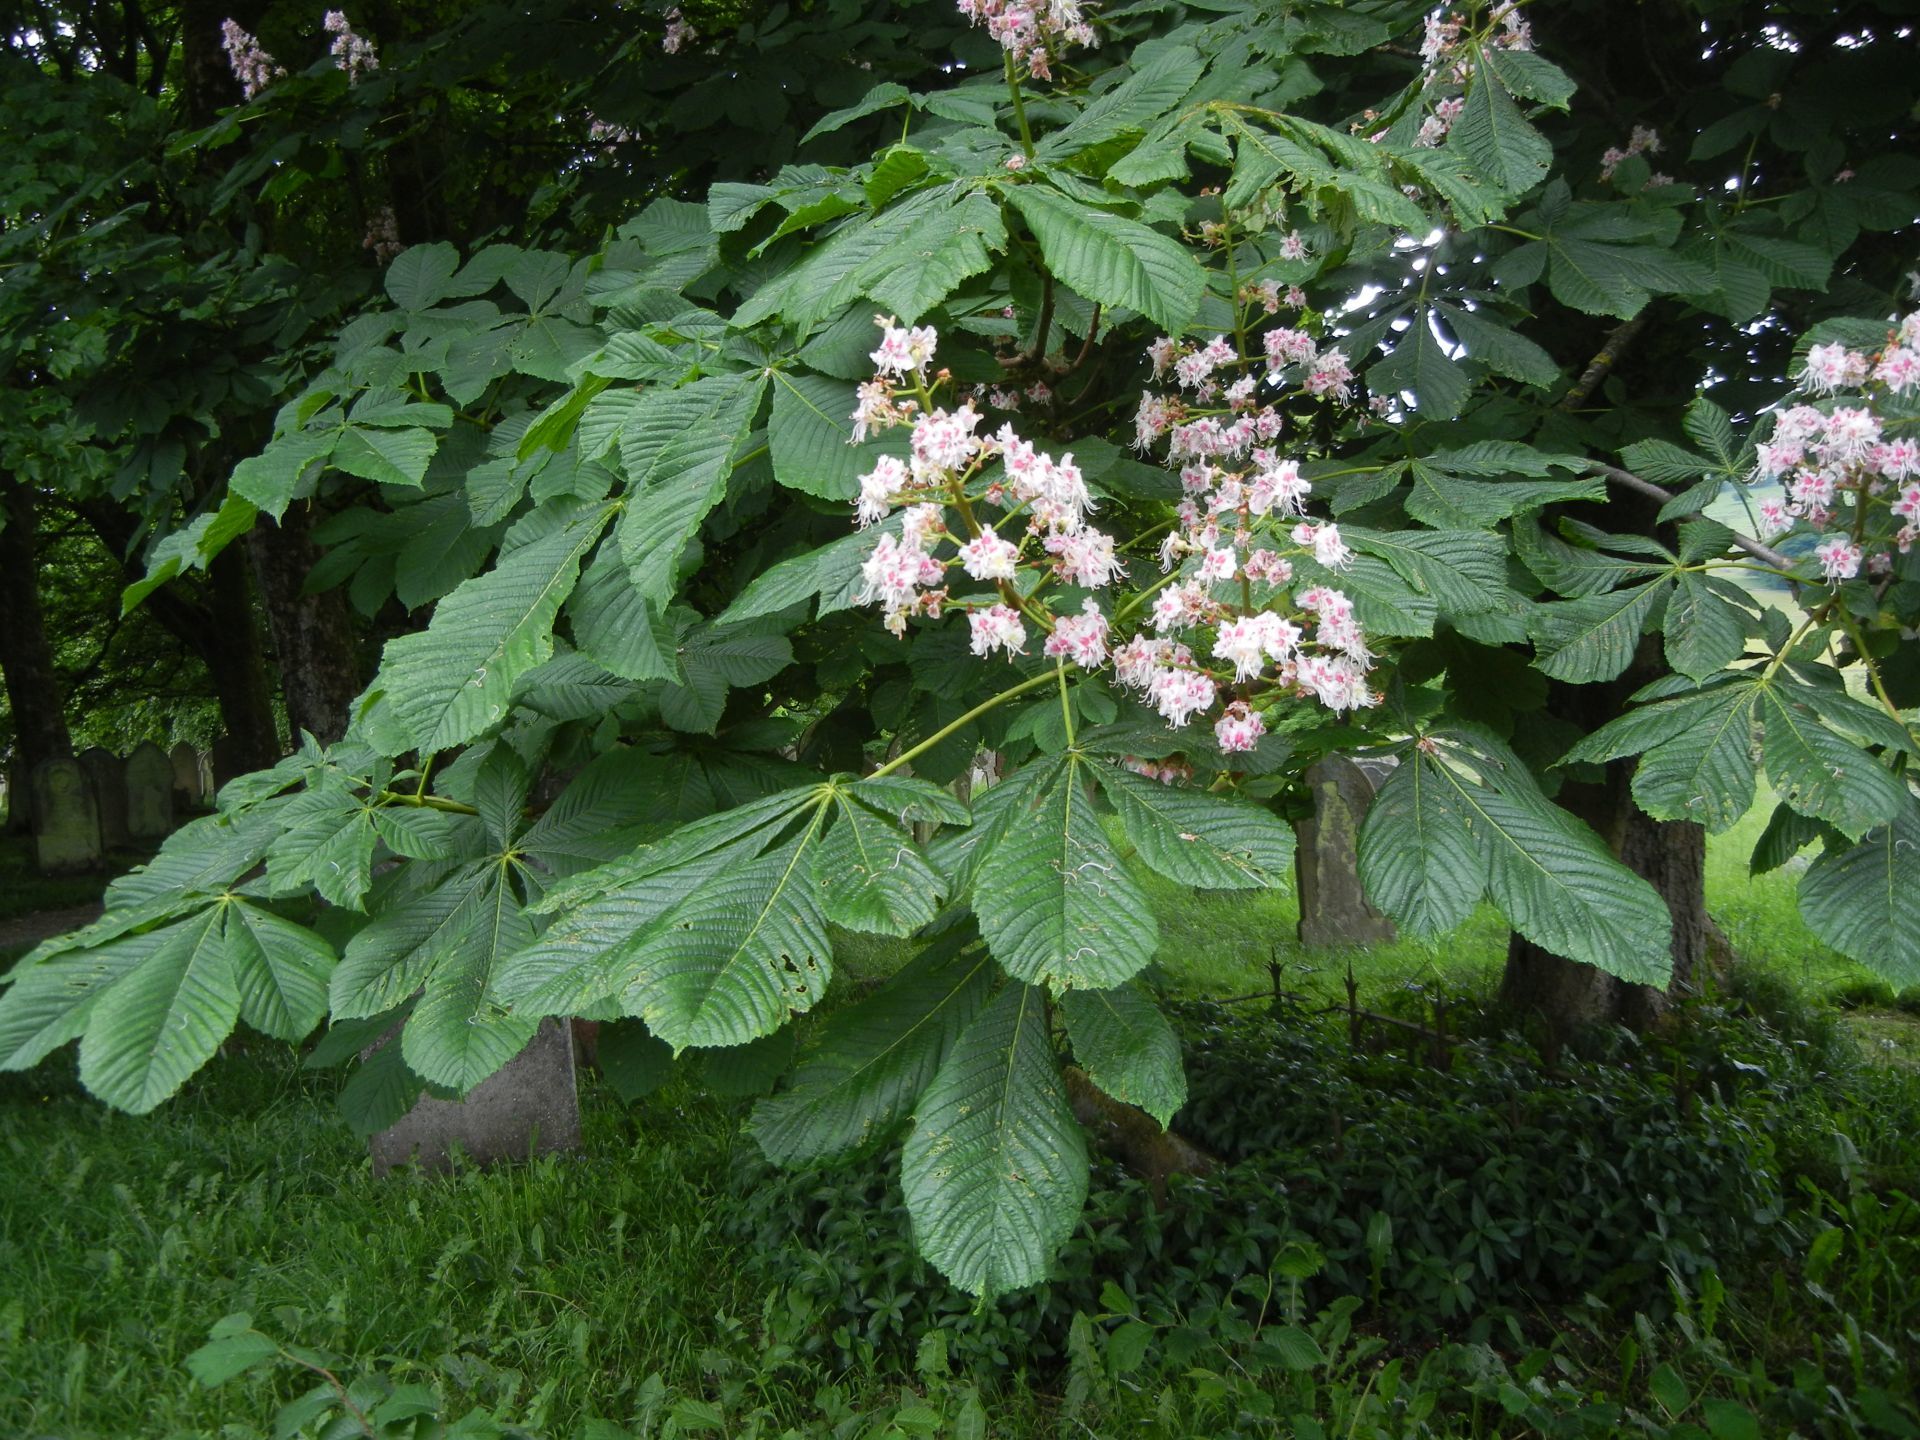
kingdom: Plantae
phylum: Tracheophyta
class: Magnoliopsida
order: Sapindales
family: Sapindaceae
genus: Aesculus
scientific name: Aesculus hippocastanum
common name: Horse-chestnut
